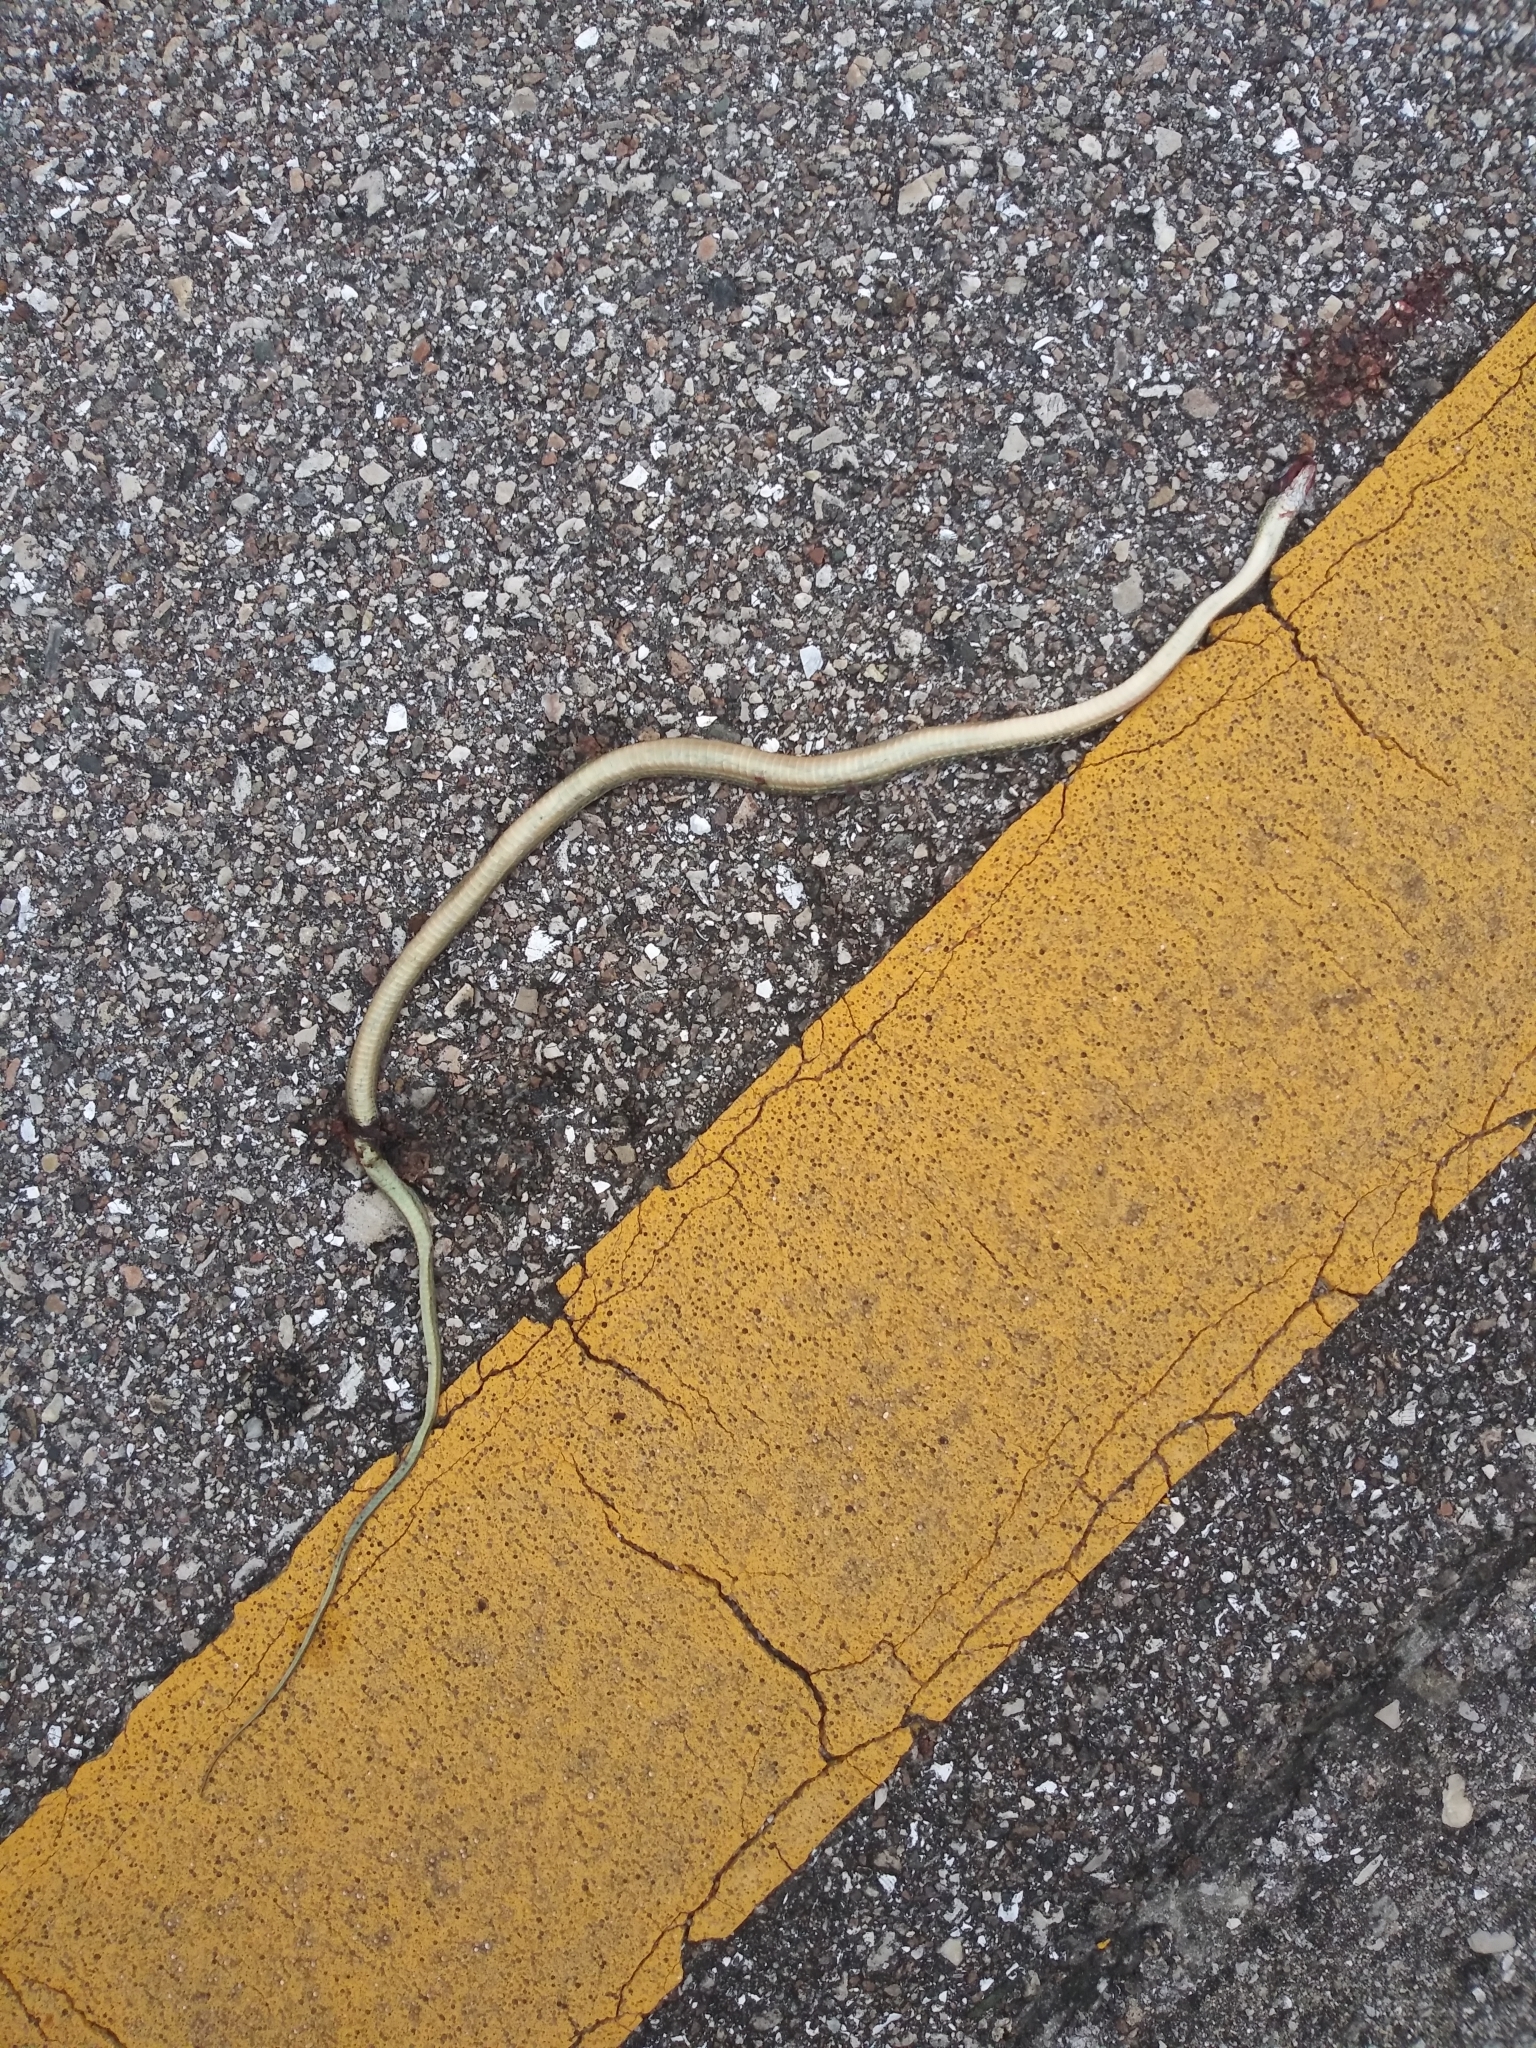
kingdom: Animalia
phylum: Chordata
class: Squamata
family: Colubridae
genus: Thamnophis
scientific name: Thamnophis saurita
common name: Eastern ribbonsnake
